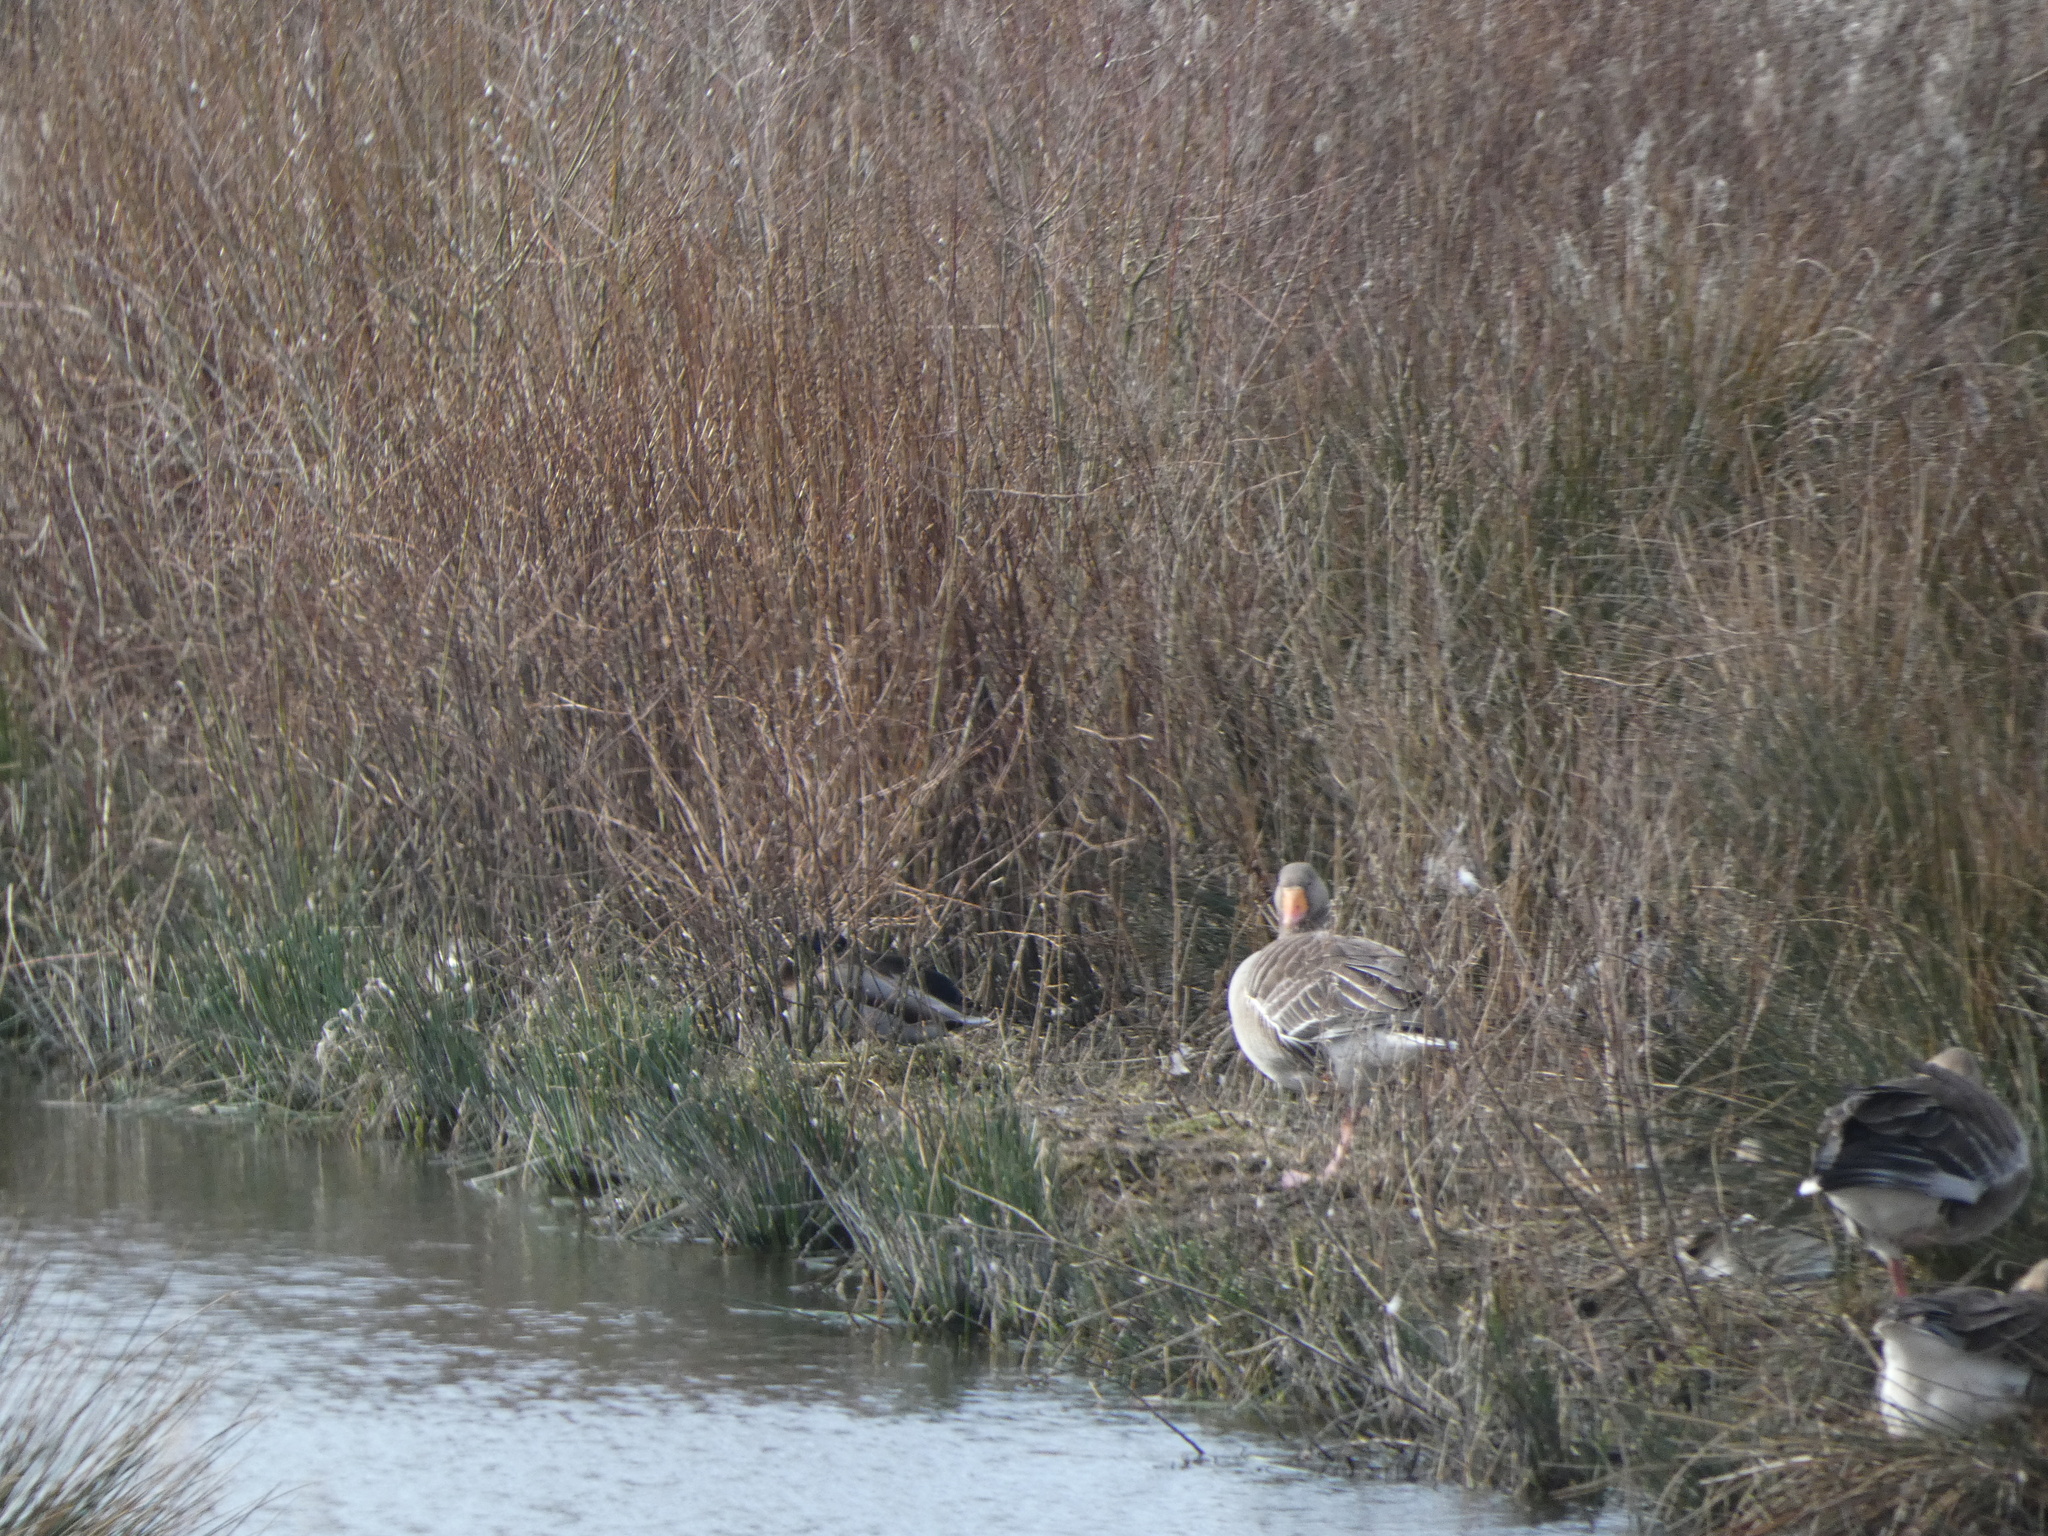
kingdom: Animalia
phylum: Chordata
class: Aves
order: Anseriformes
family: Anatidae
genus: Anser
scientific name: Anser anser
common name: Greylag goose
